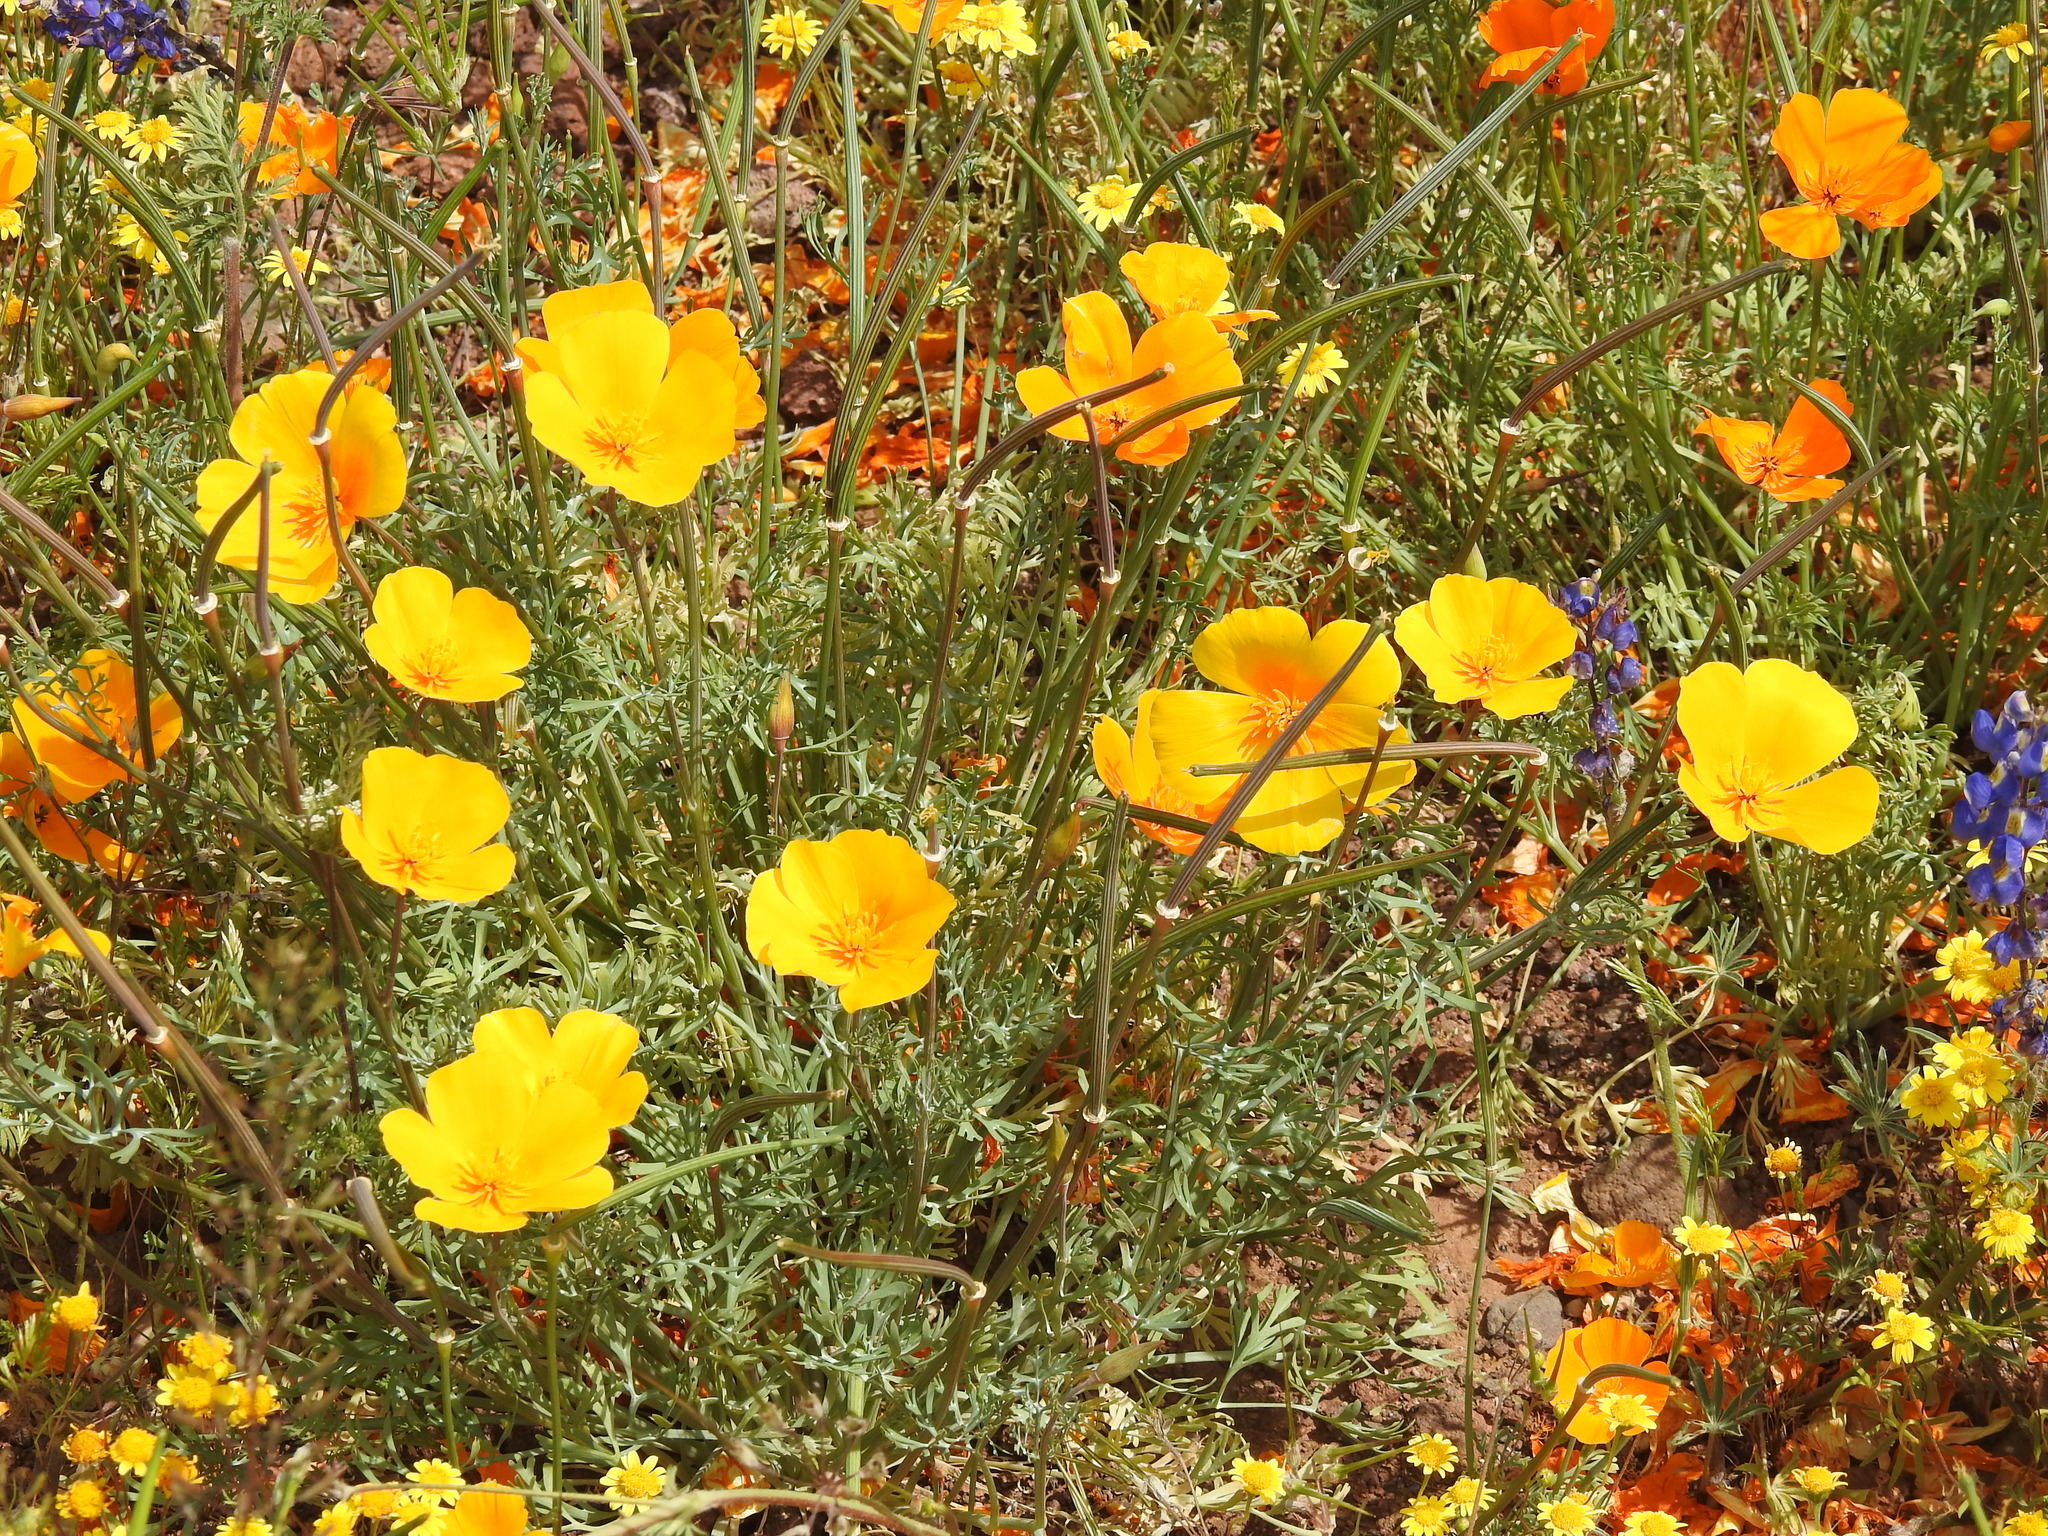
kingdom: Plantae
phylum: Tracheophyta
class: Magnoliopsida
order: Ranunculales
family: Papaveraceae
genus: Eschscholzia
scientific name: Eschscholzia californica
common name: California poppy
